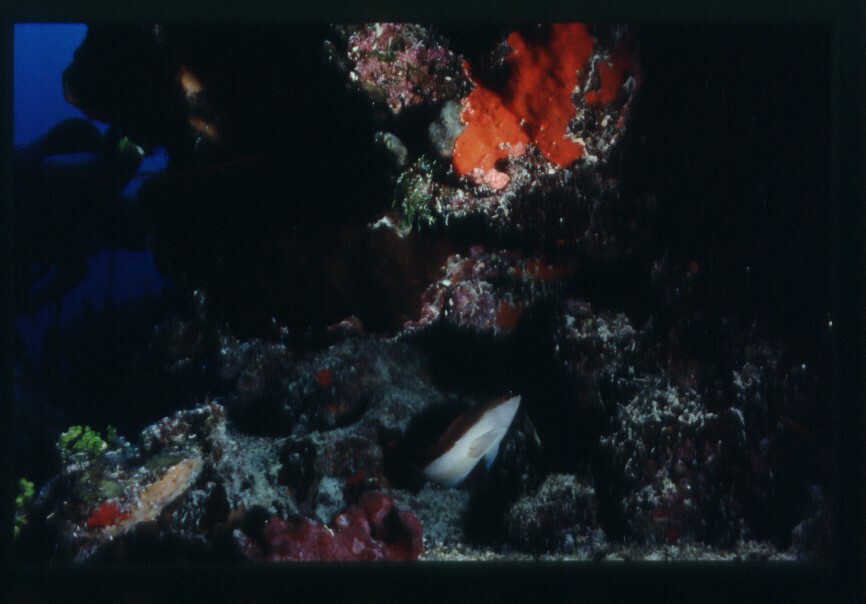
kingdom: Animalia
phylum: Chordata
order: Perciformes
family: Serranidae
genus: Cephalopholis
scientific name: Cephalopholis fulva
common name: Butterfish
